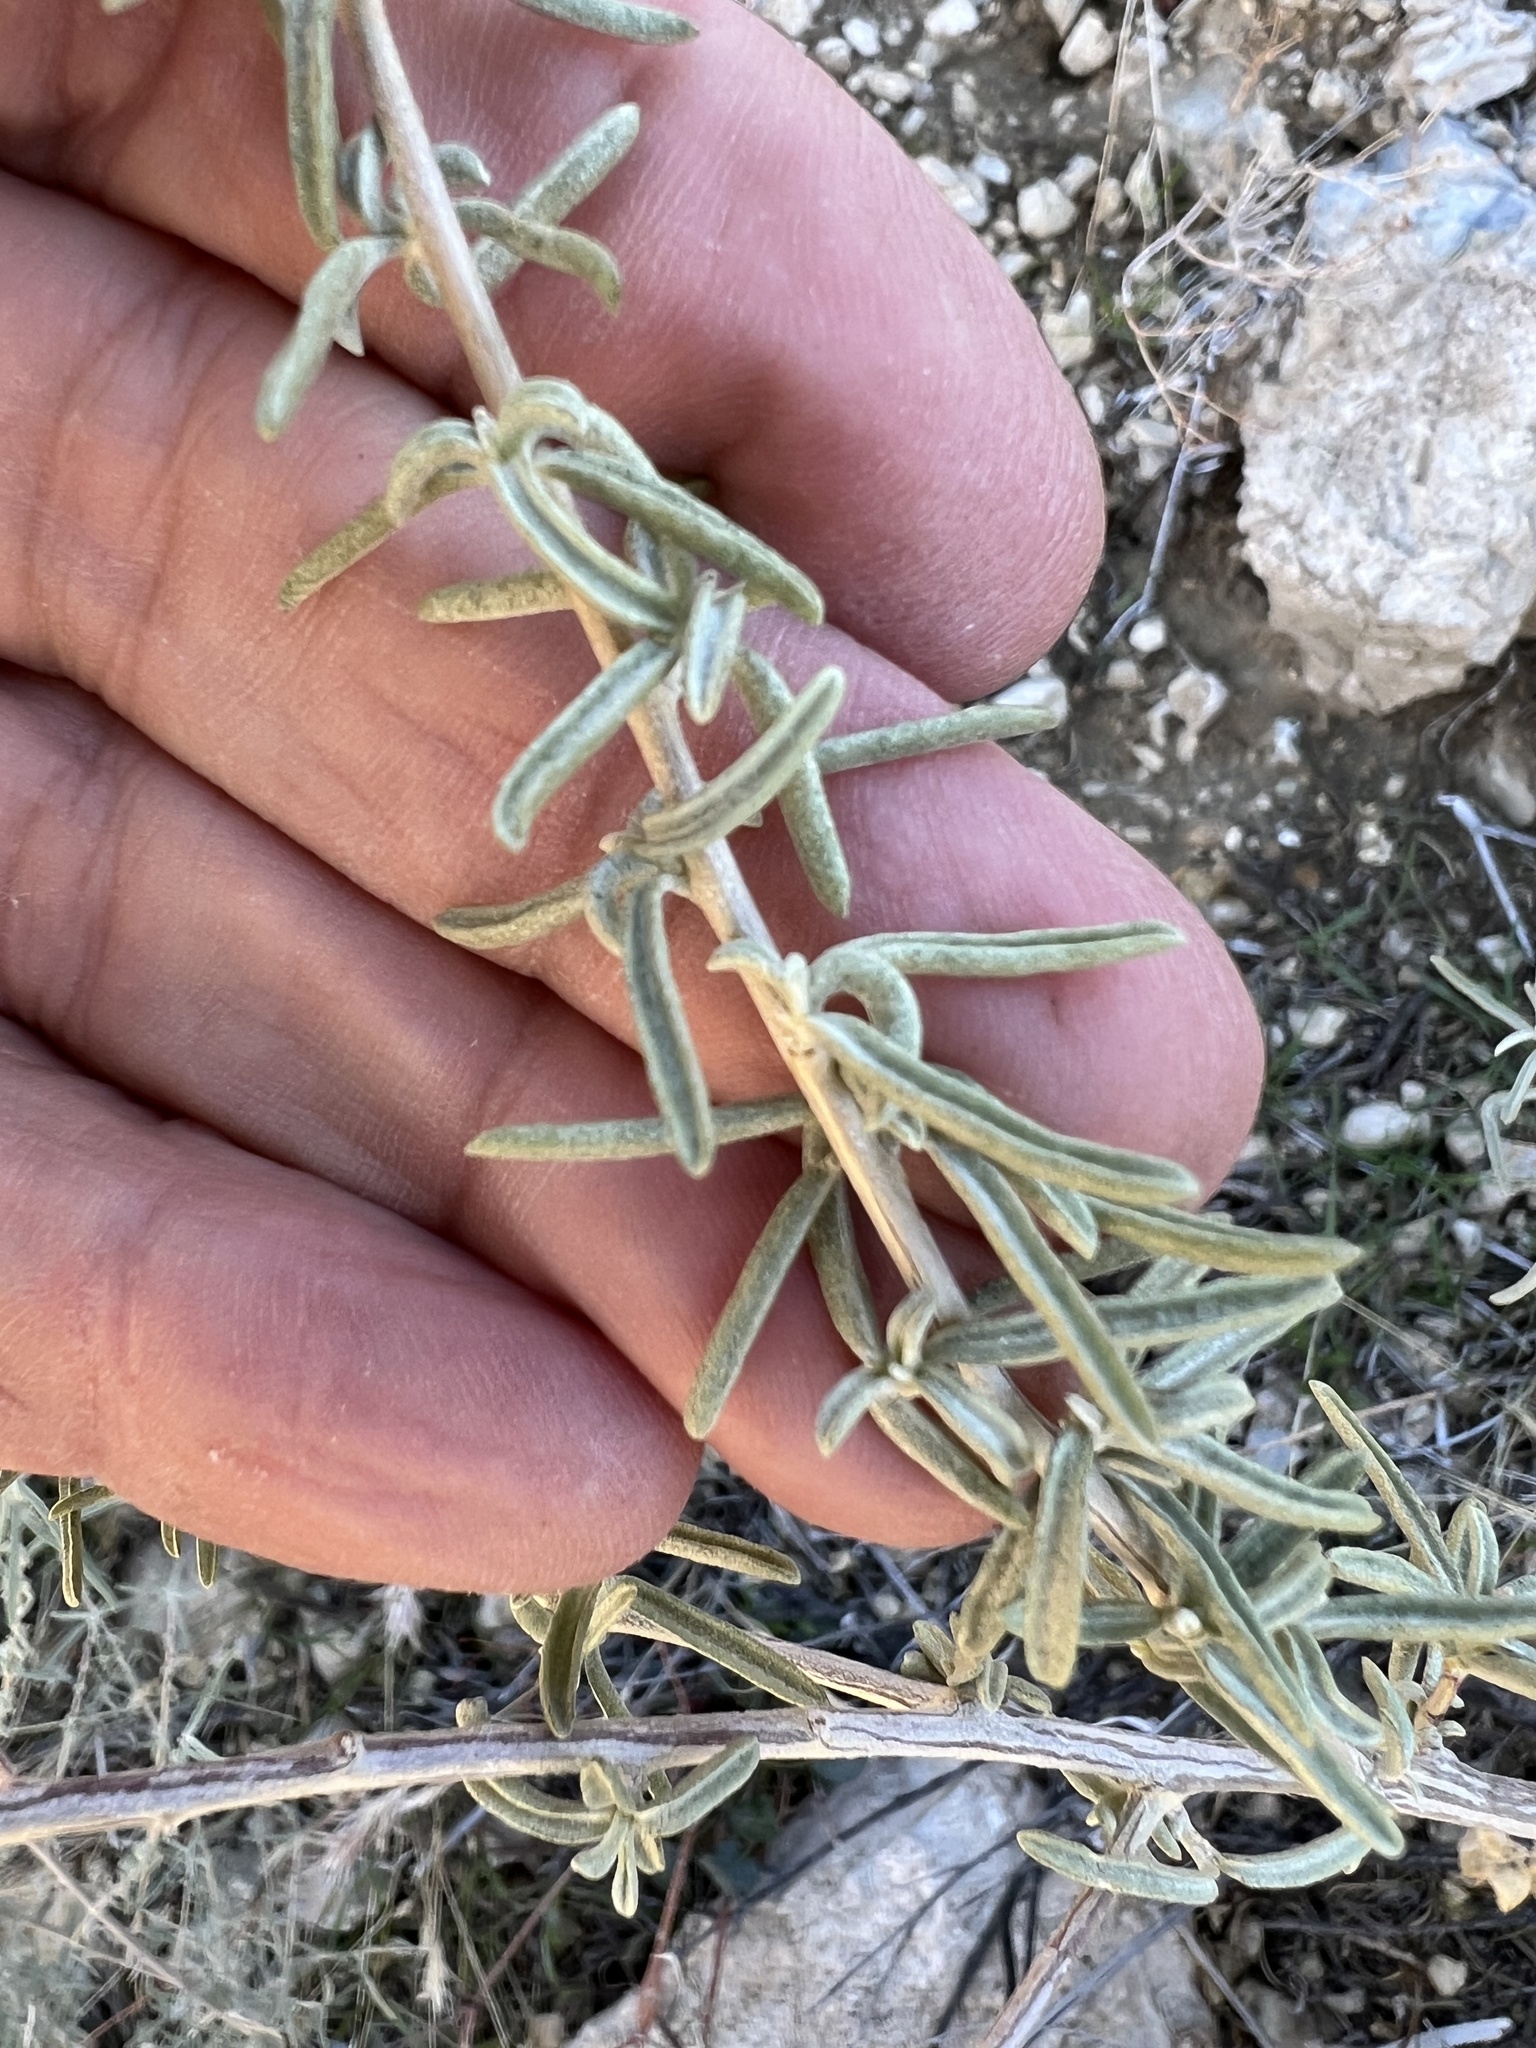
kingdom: Plantae
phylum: Tracheophyta
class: Magnoliopsida
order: Caryophyllales
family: Amaranthaceae
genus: Atriplex
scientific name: Atriplex canescens
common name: Four-wing saltbush
